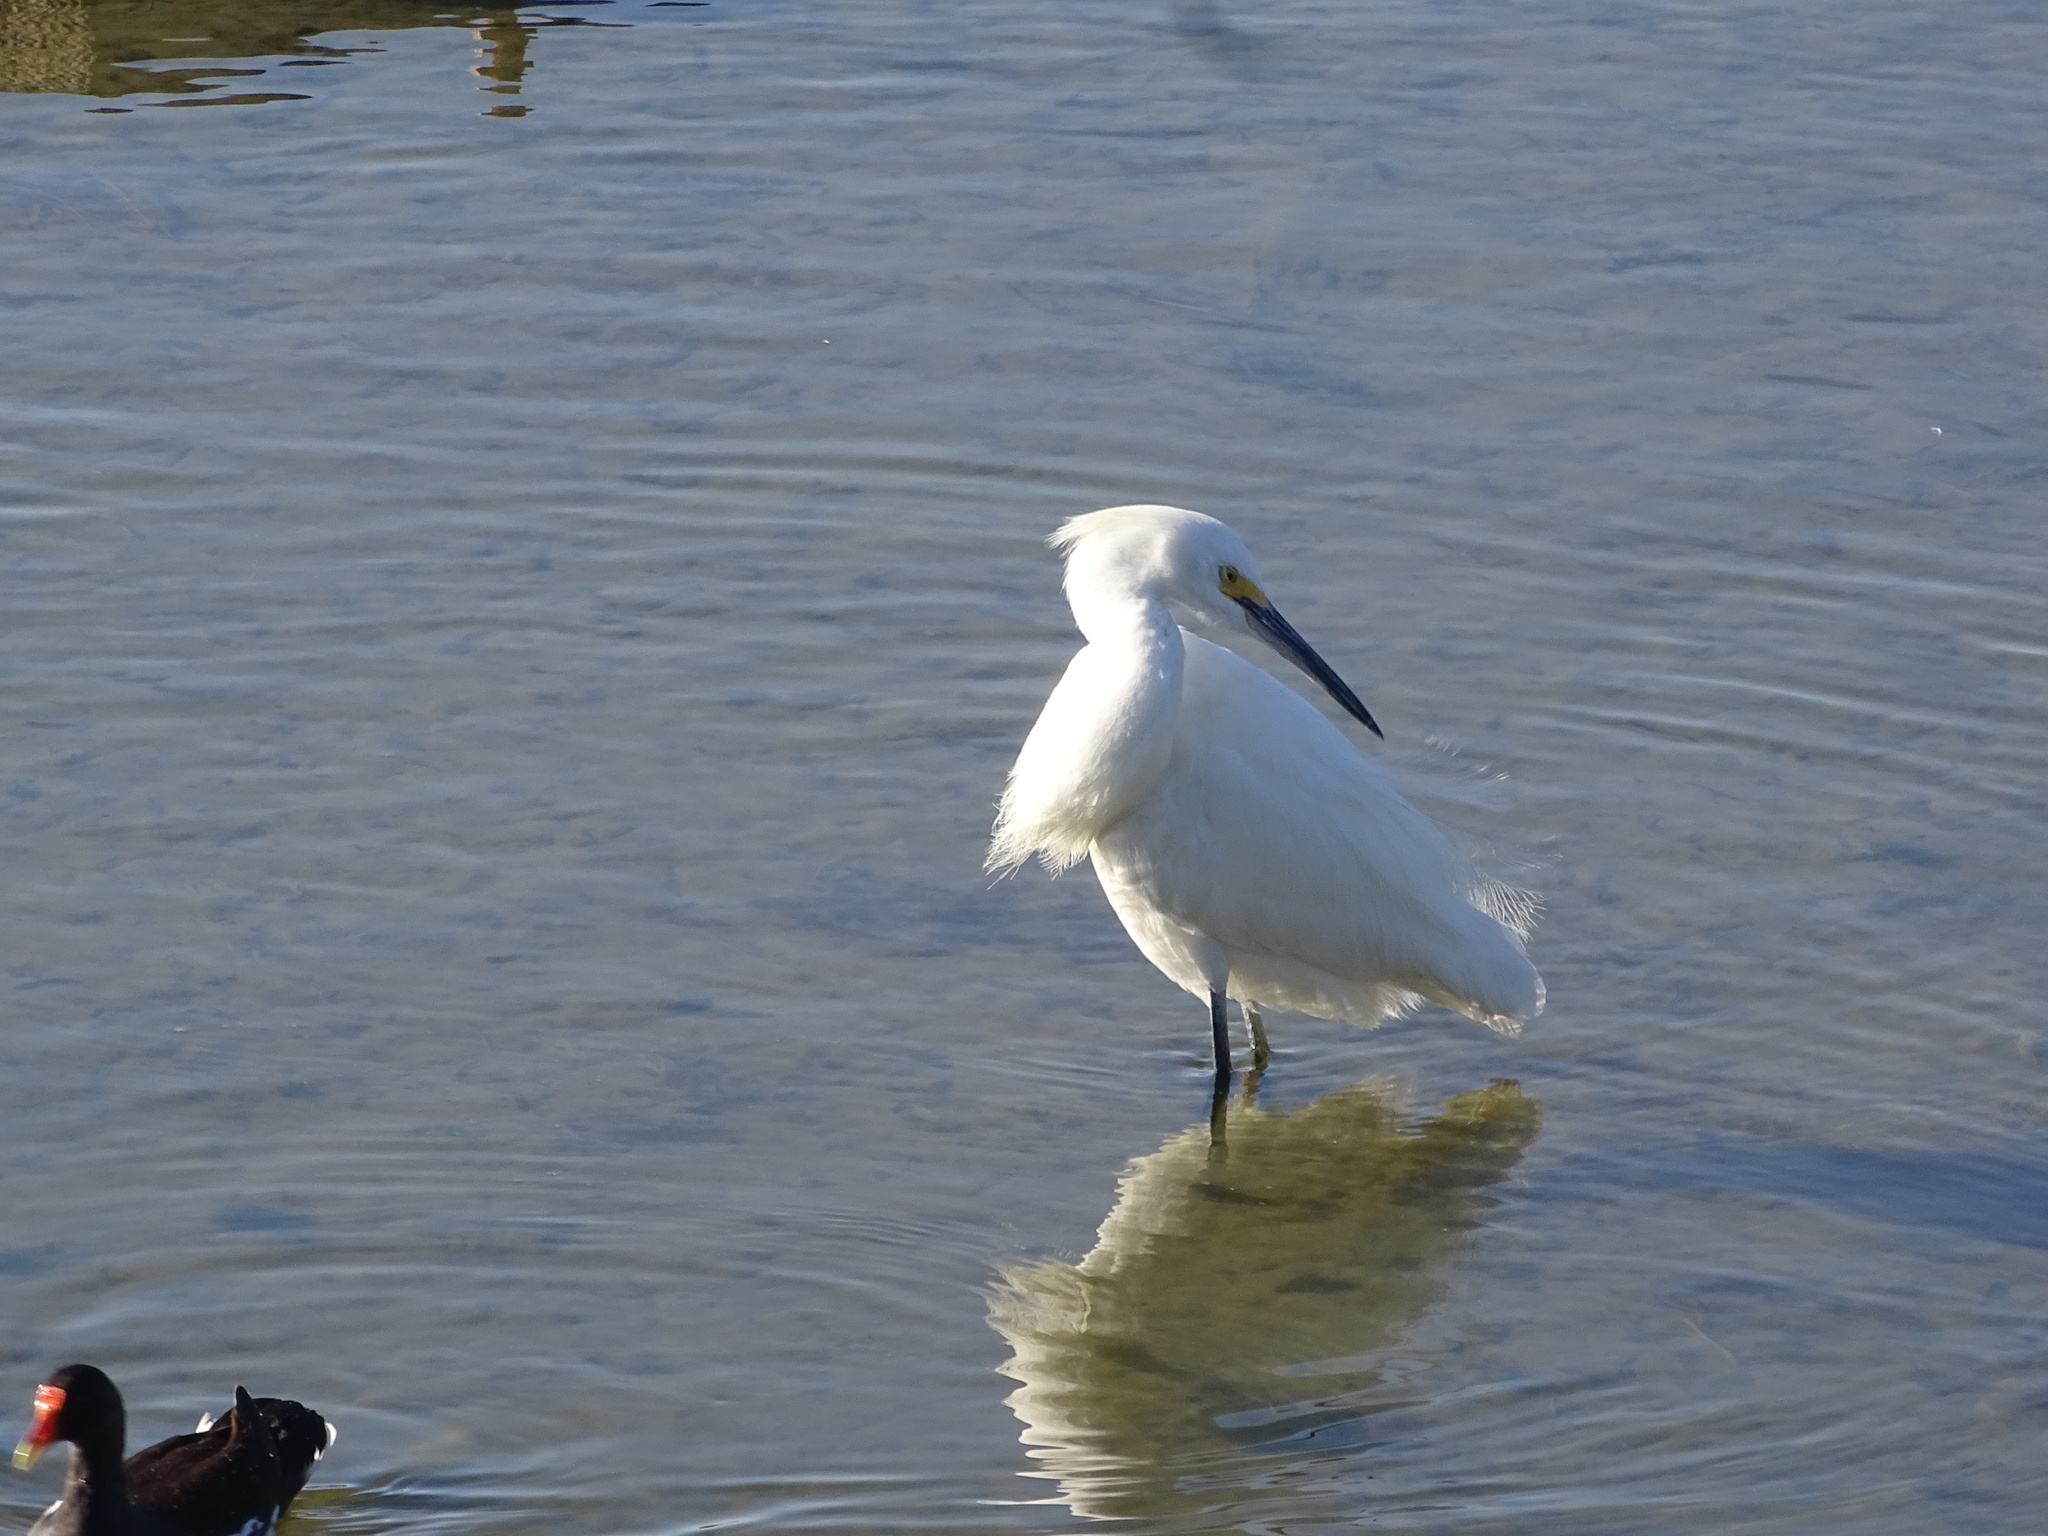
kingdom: Animalia
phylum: Chordata
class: Aves
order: Pelecaniformes
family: Ardeidae
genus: Egretta
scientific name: Egretta thula
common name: Snowy egret
